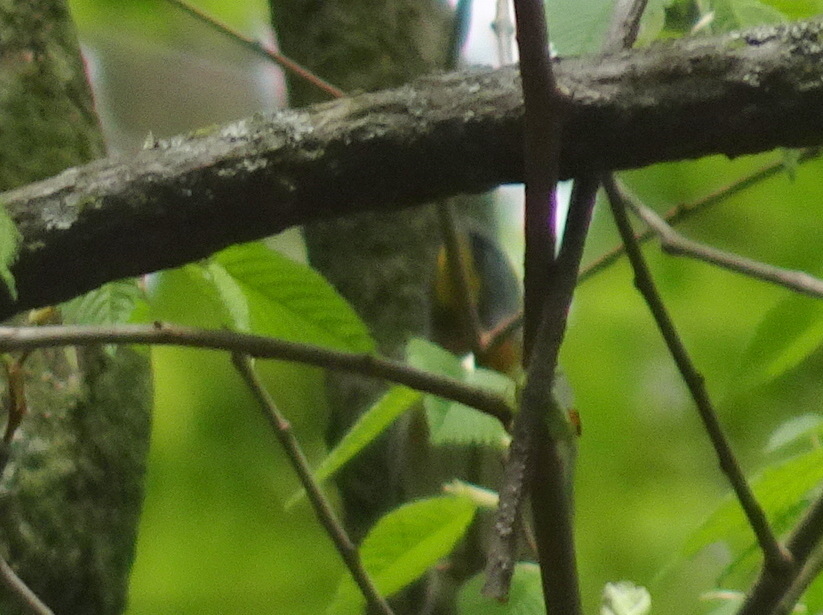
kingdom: Animalia
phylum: Chordata
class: Aves
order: Passeriformes
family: Parulidae
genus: Setophaga
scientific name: Setophaga americana
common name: Northern parula
